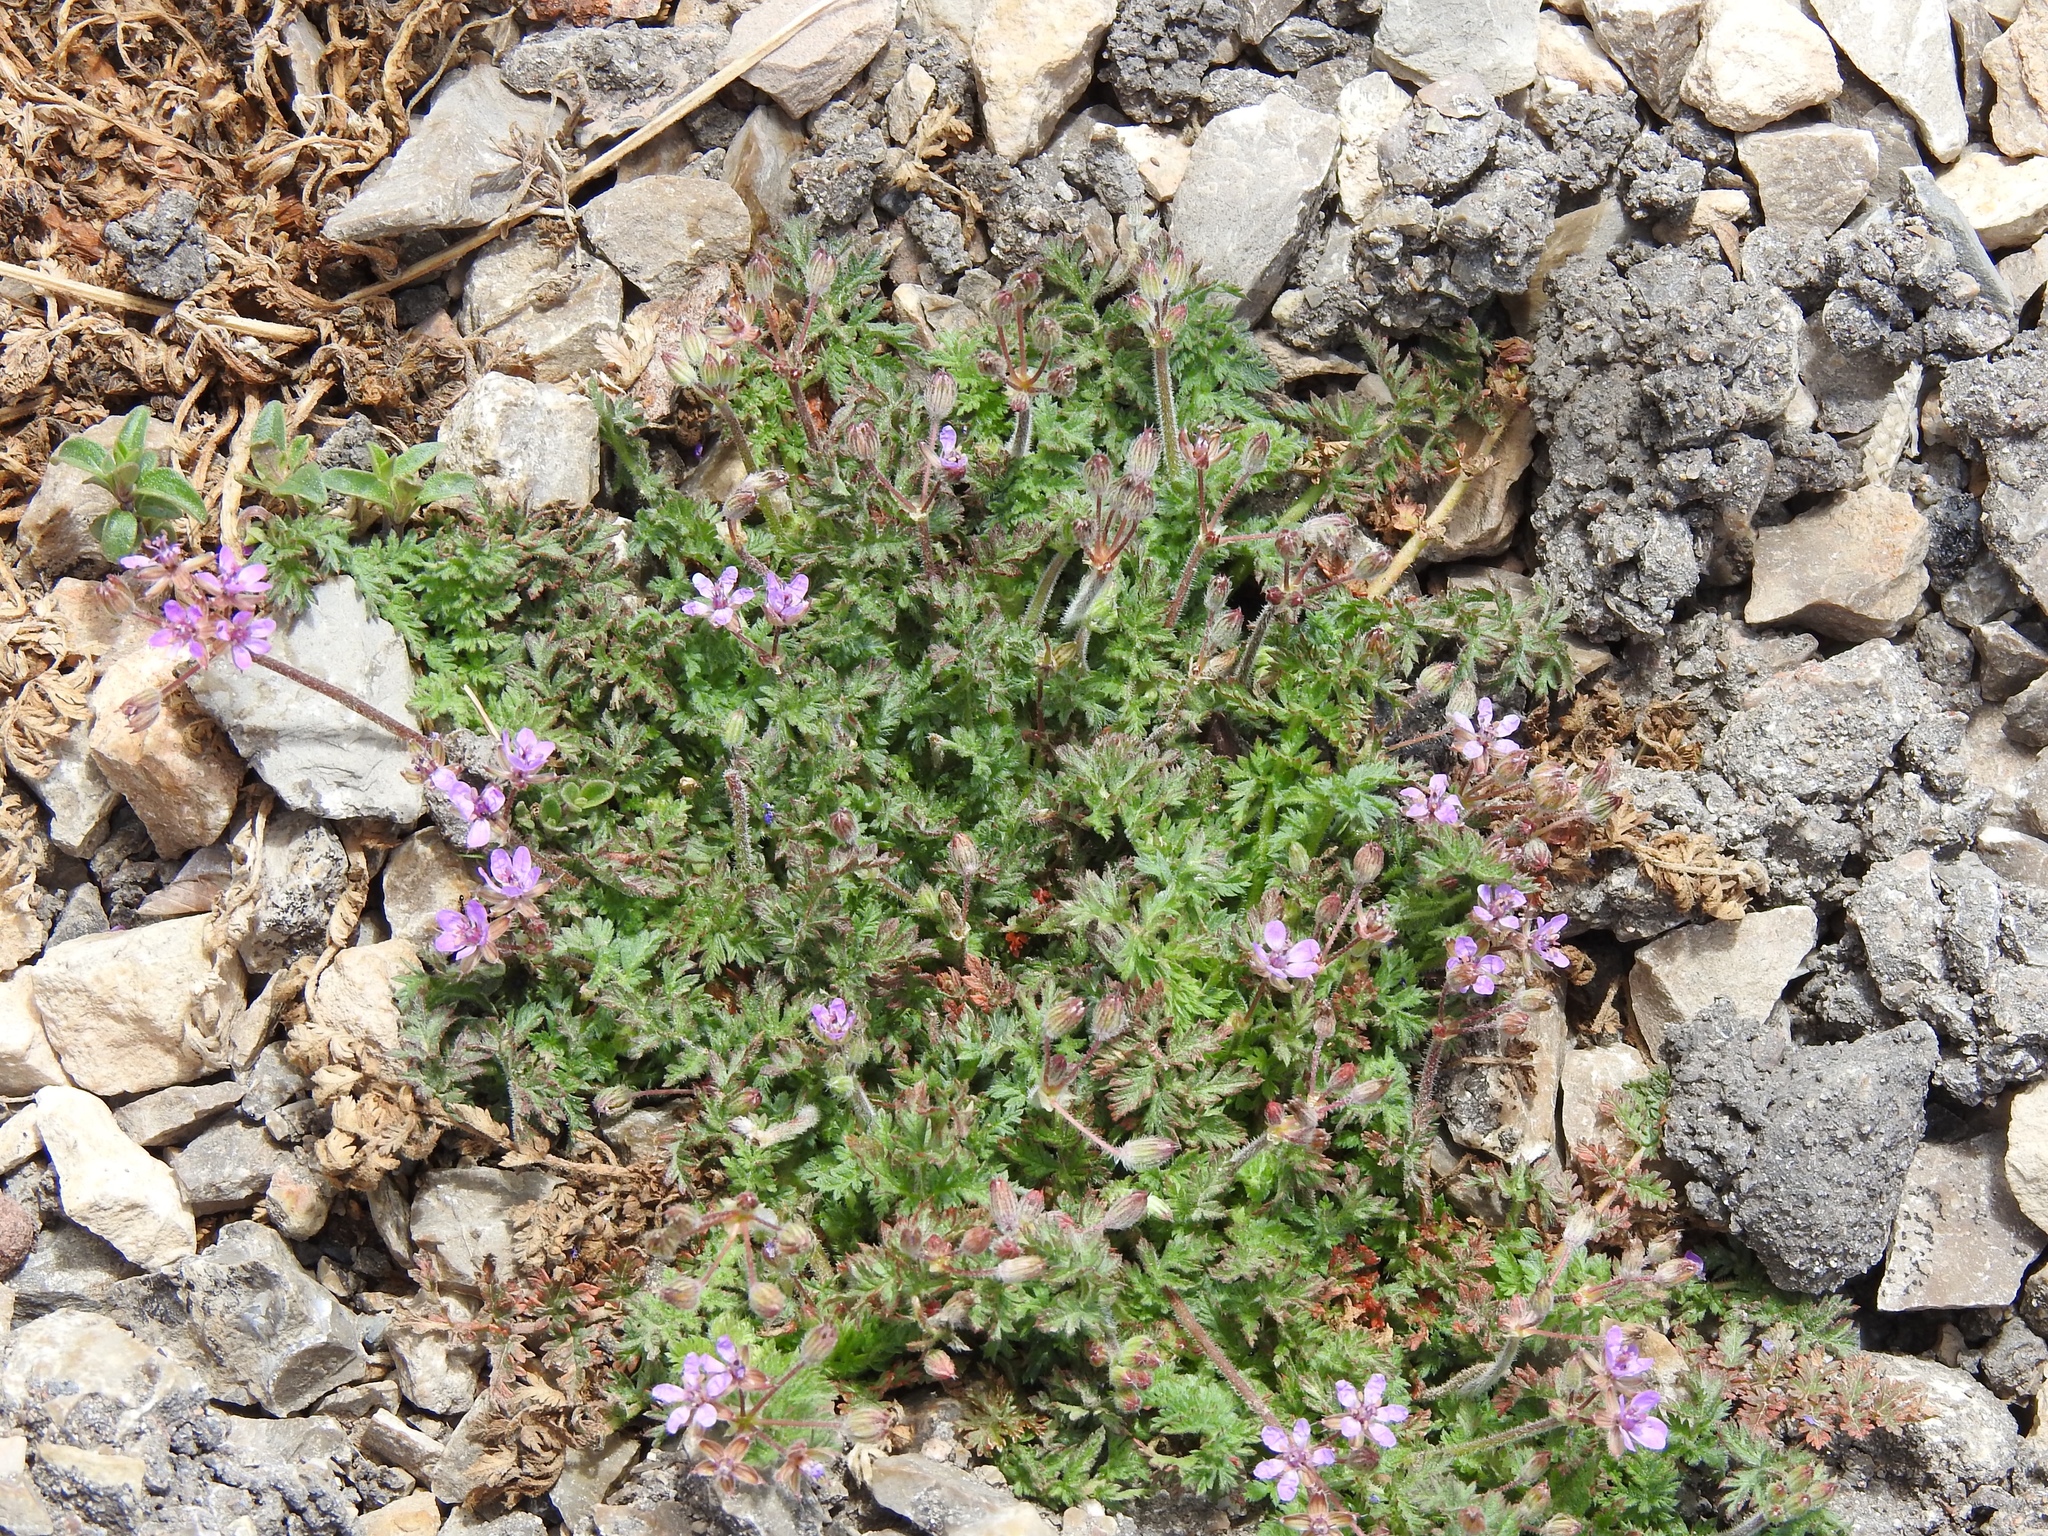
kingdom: Plantae
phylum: Tracheophyta
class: Magnoliopsida
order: Geraniales
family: Geraniaceae
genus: Erodium
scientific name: Erodium cicutarium
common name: Common stork's-bill
